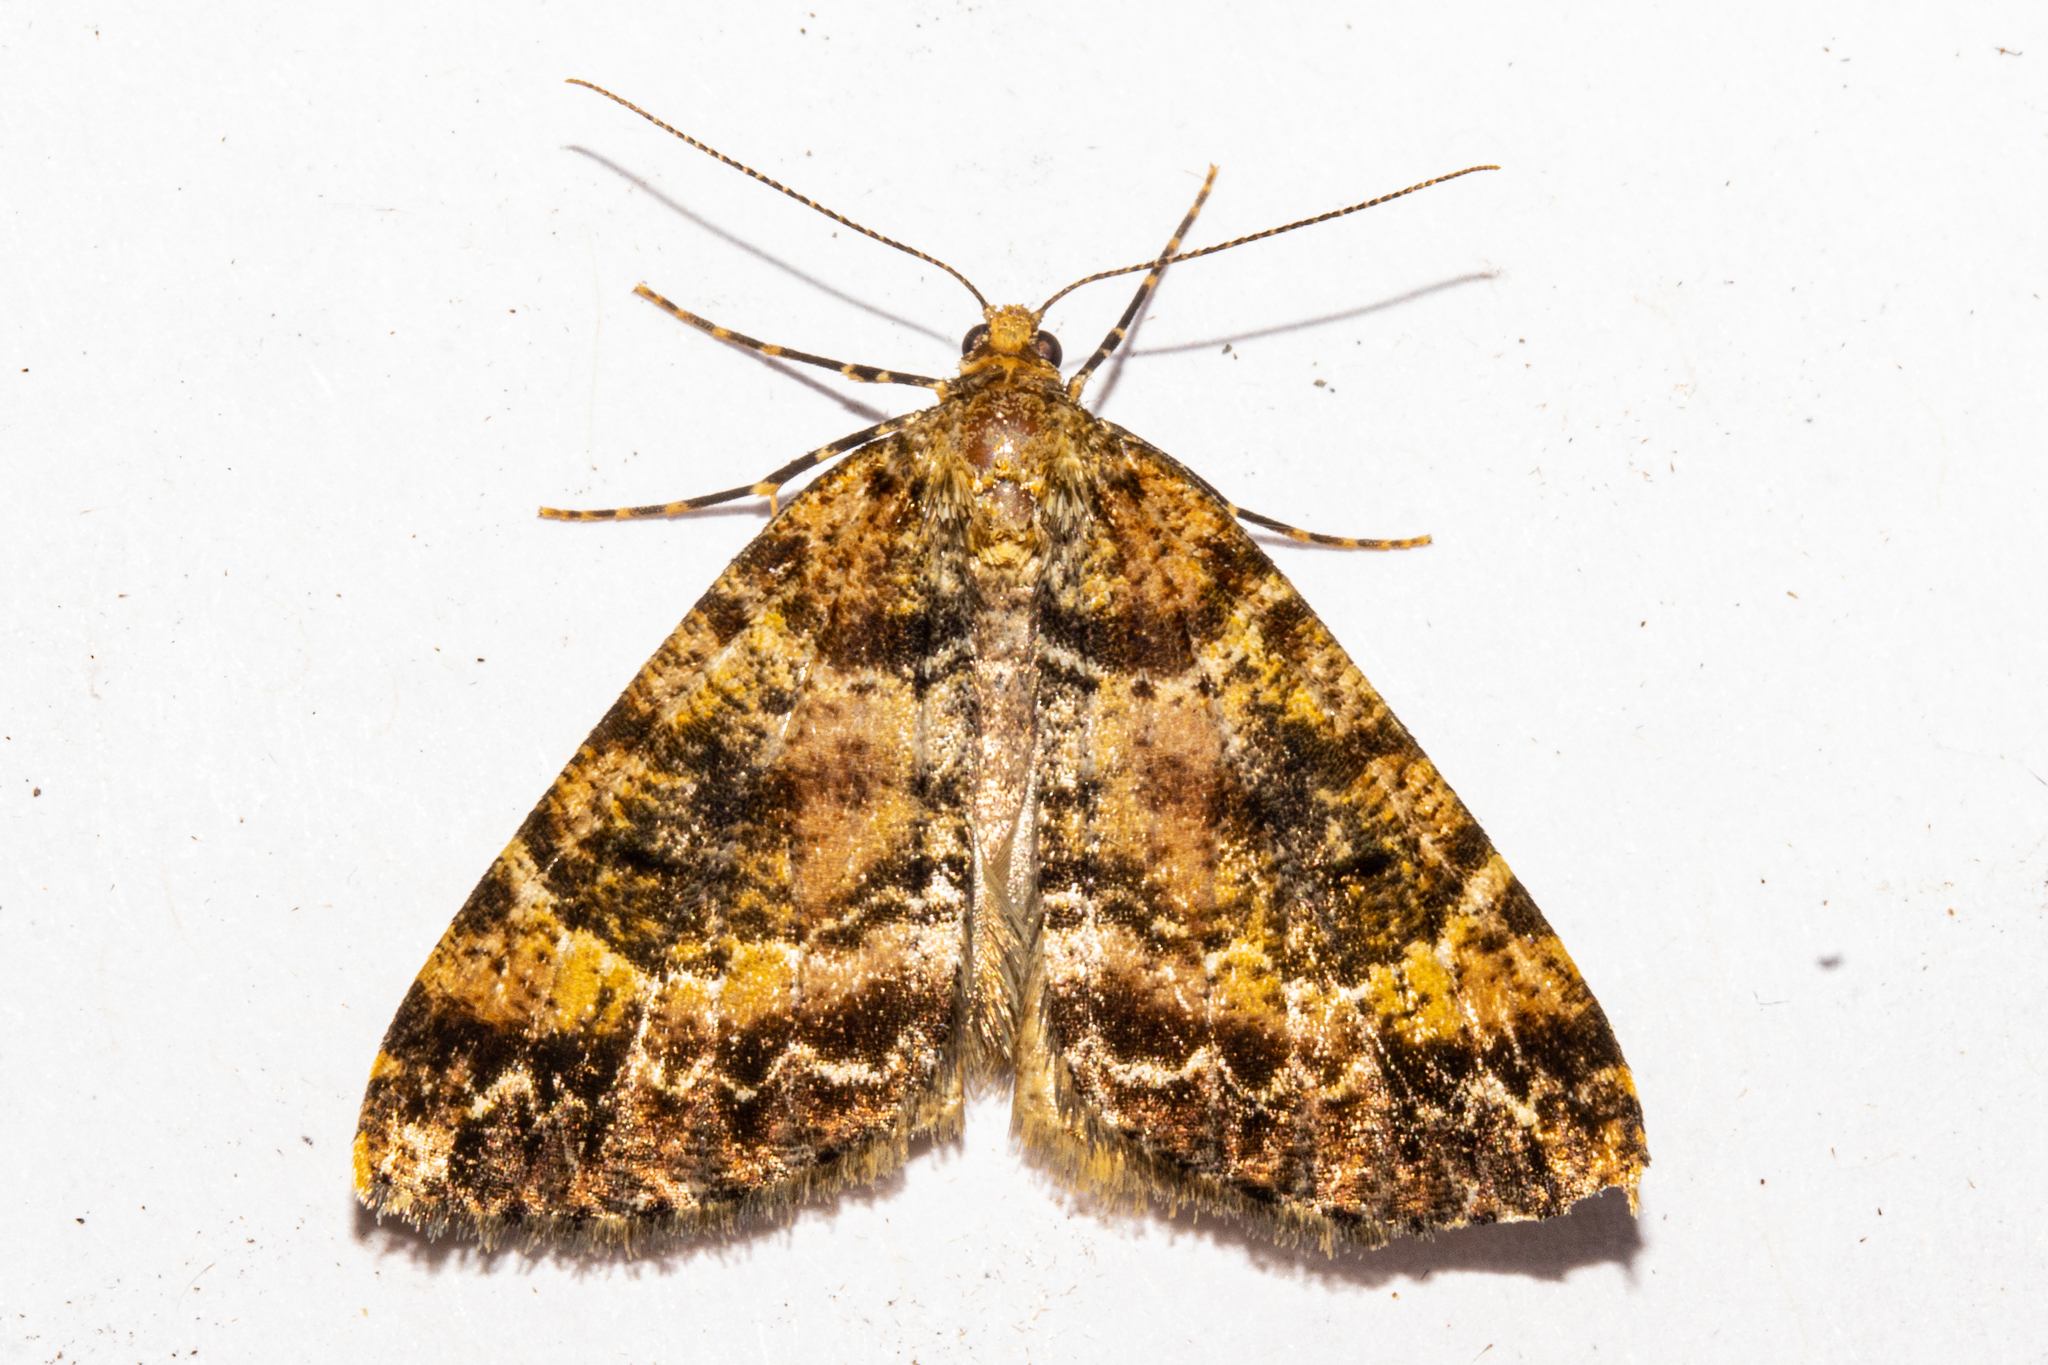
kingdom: Animalia
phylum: Arthropoda
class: Insecta
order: Lepidoptera
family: Geometridae
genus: Pseudocoremia
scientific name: Pseudocoremia productata
